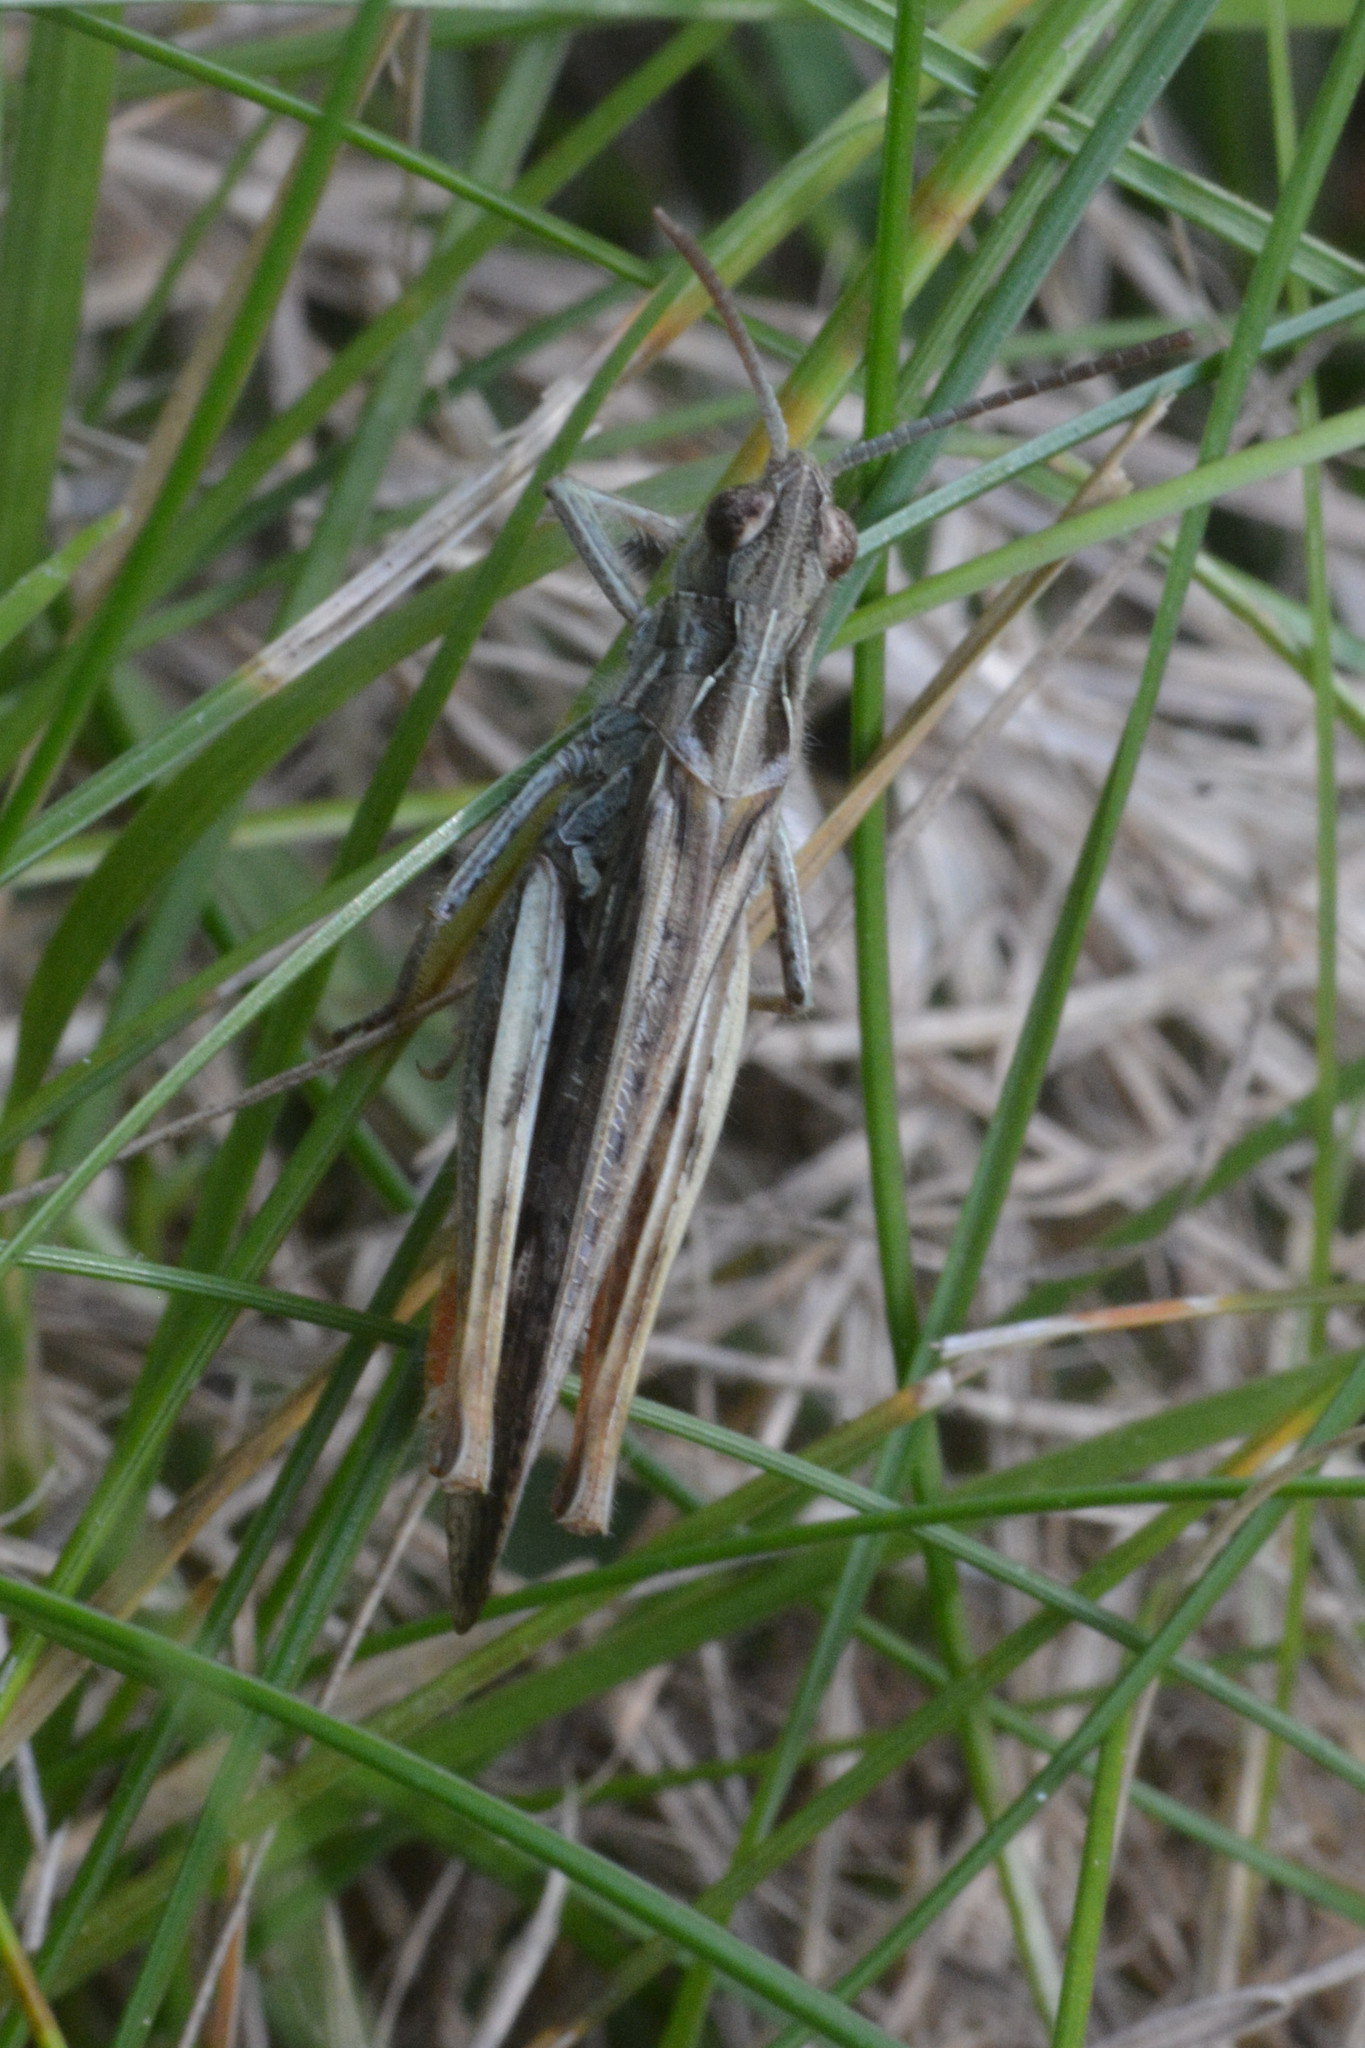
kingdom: Animalia
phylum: Arthropoda
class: Insecta
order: Orthoptera
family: Acrididae
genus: Chorthippus
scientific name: Chorthippus brunneus
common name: Field grasshopper
